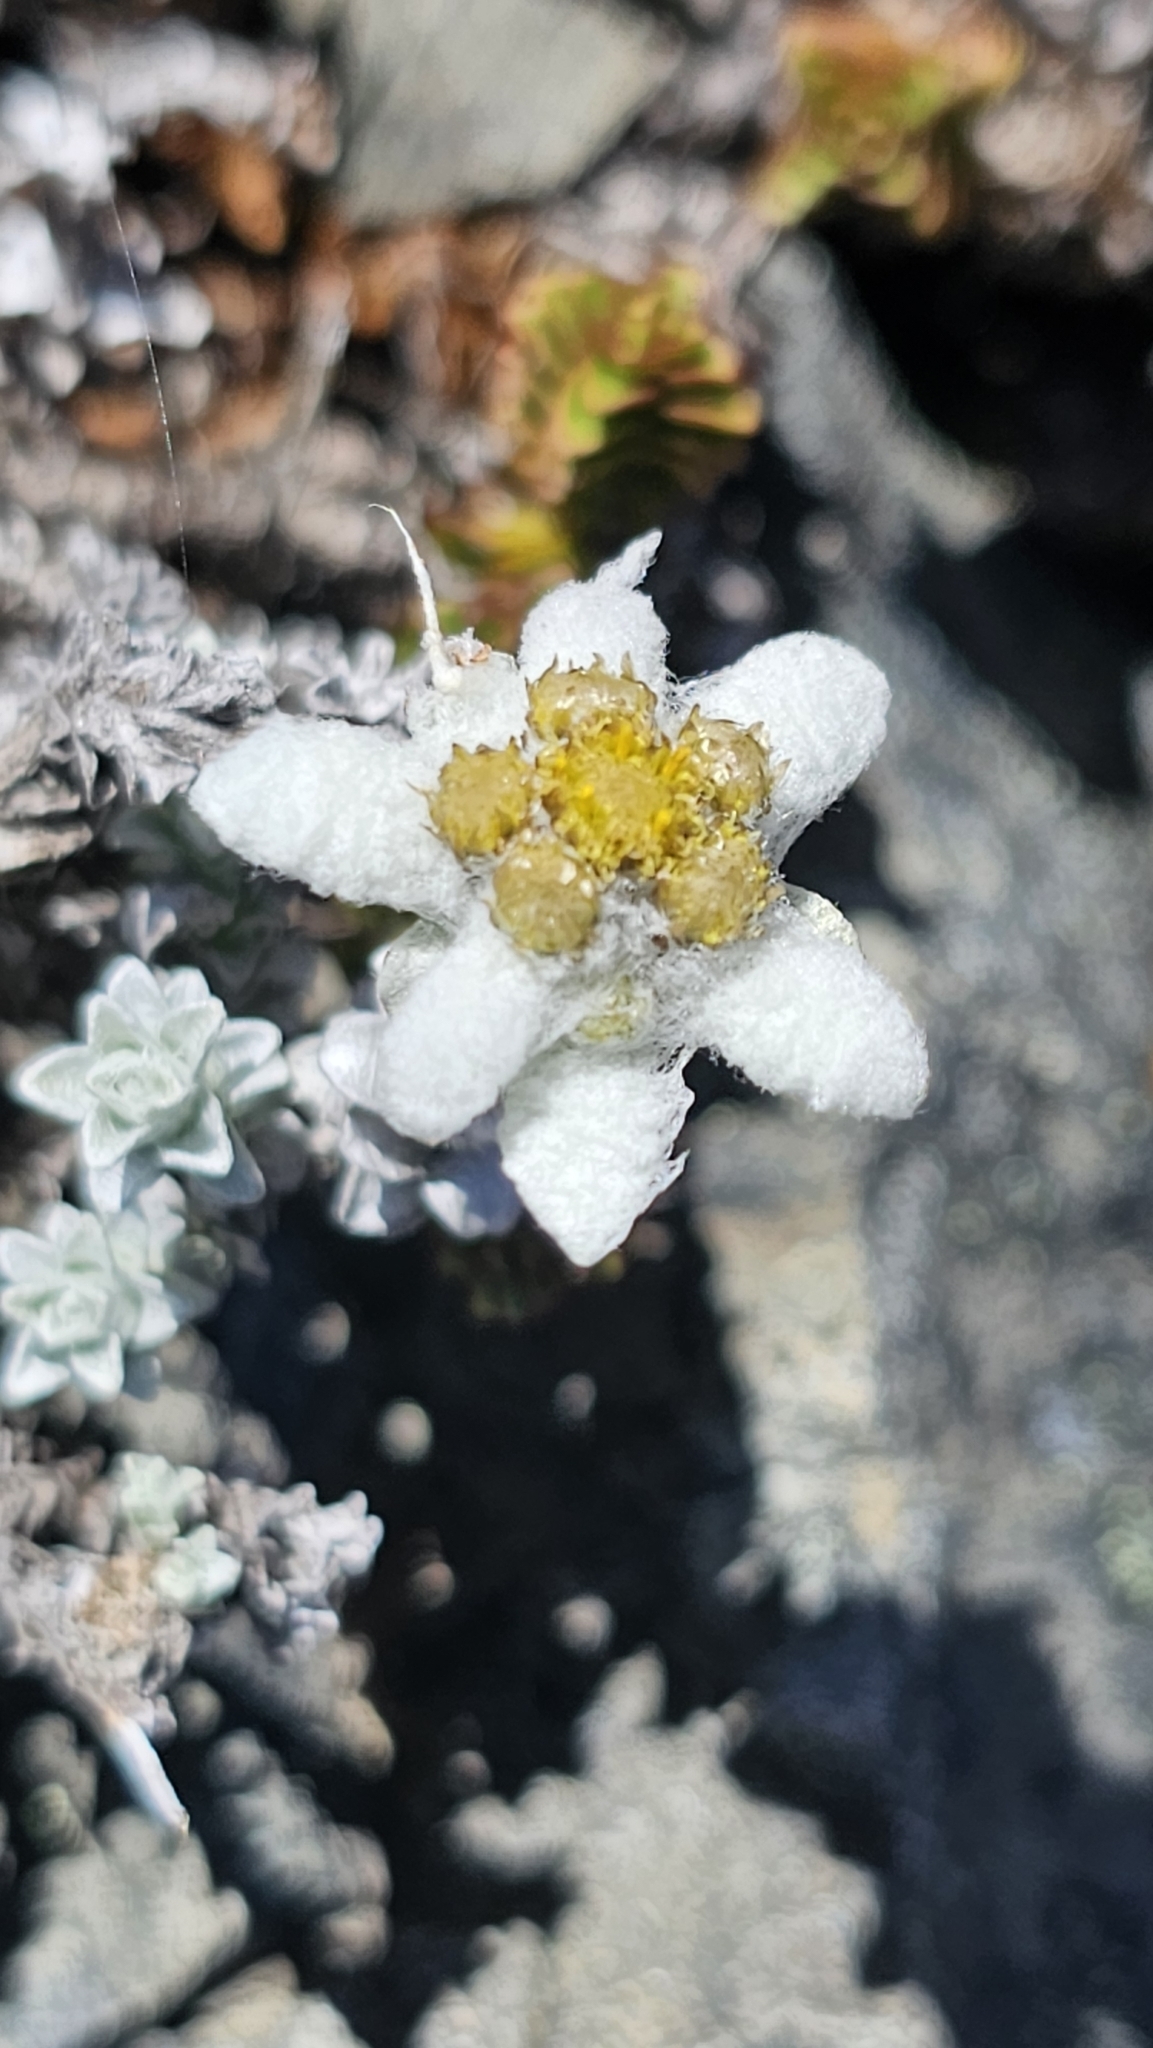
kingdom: Plantae
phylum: Tracheophyta
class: Magnoliopsida
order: Asterales
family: Asteraceae
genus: Leucogenes
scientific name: Leucogenes grandiceps
